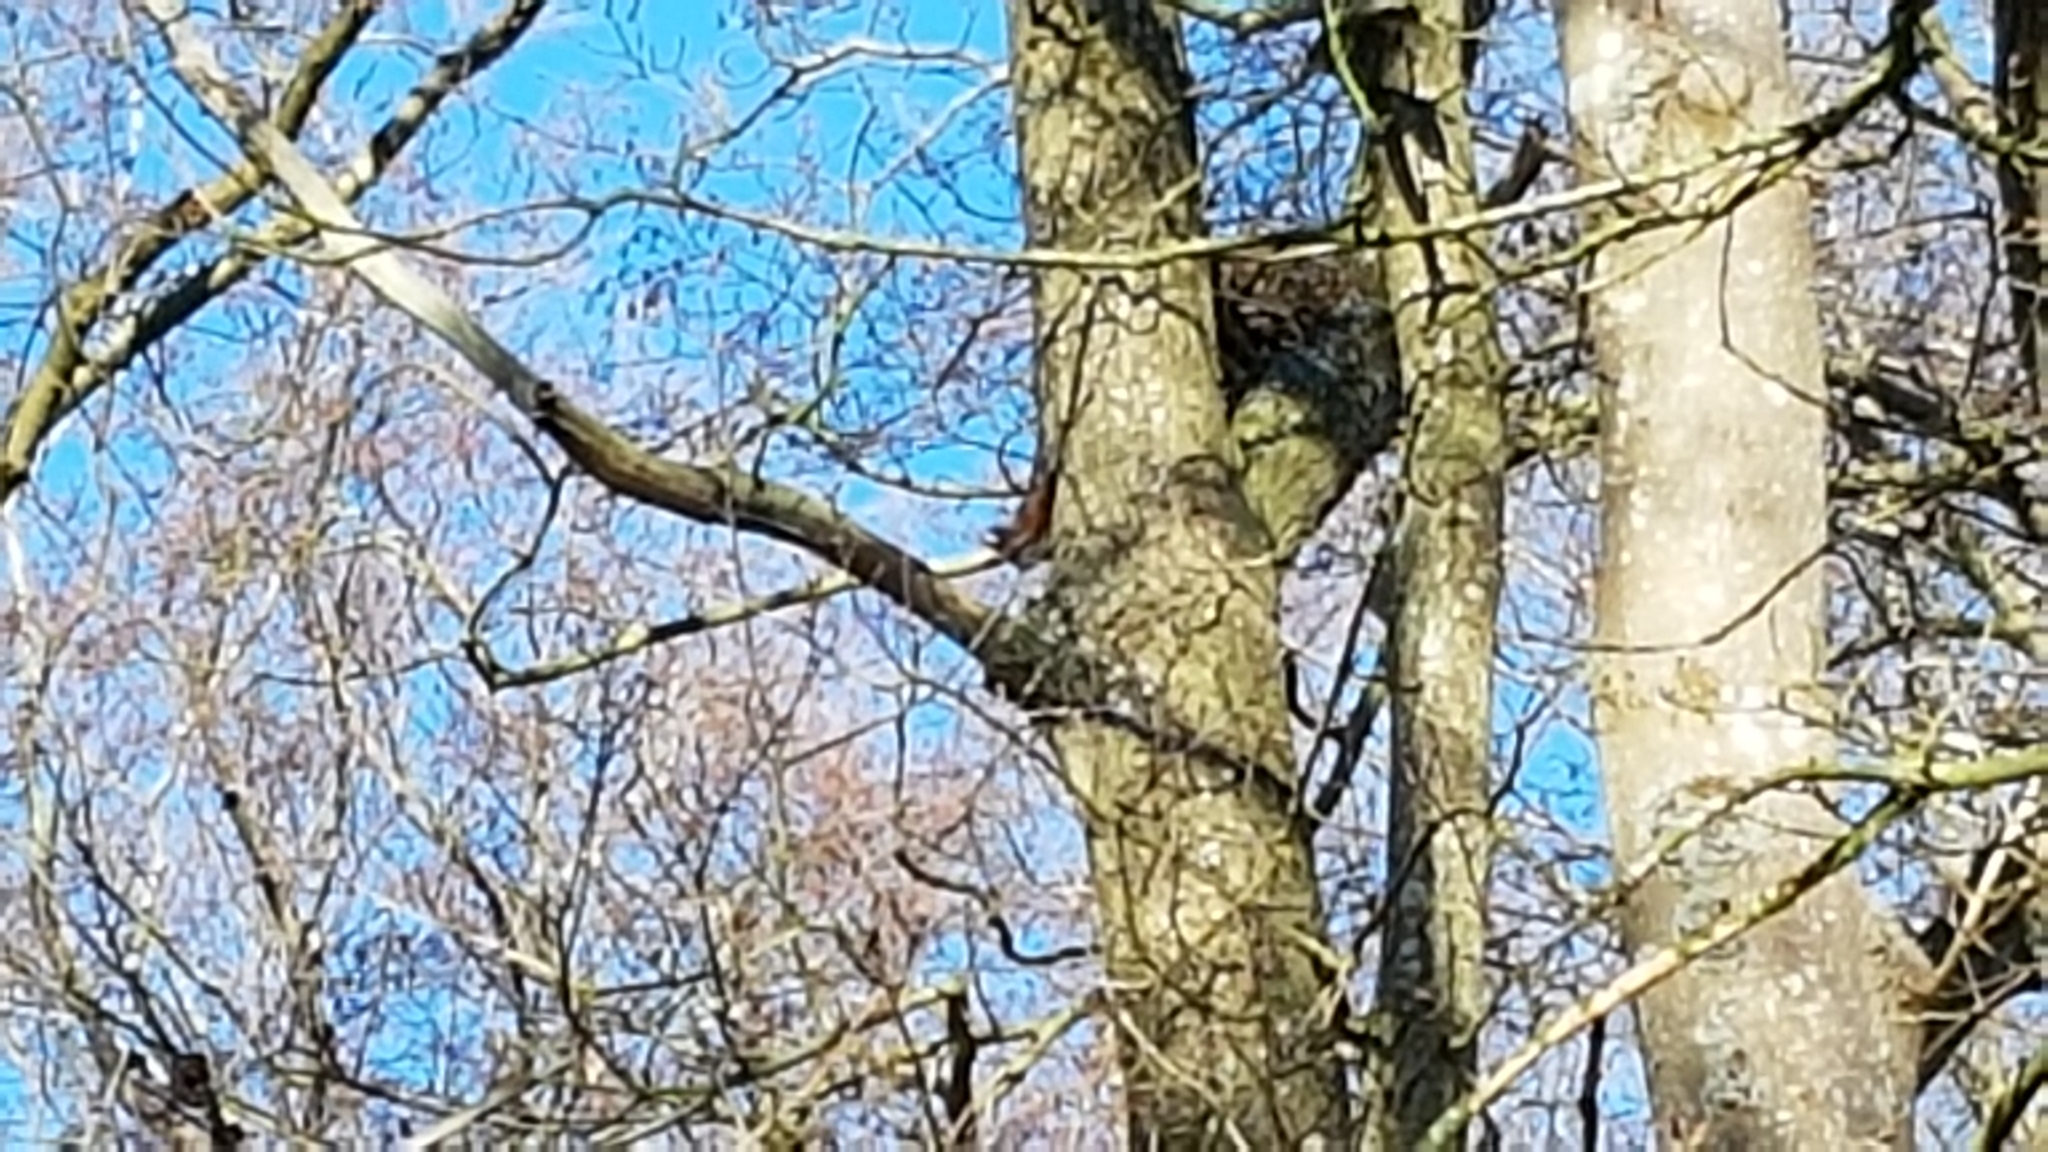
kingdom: Animalia
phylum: Chordata
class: Mammalia
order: Rodentia
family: Sciuridae
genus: Sciurus
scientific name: Sciurus vulgaris
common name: Eurasian red squirrel
